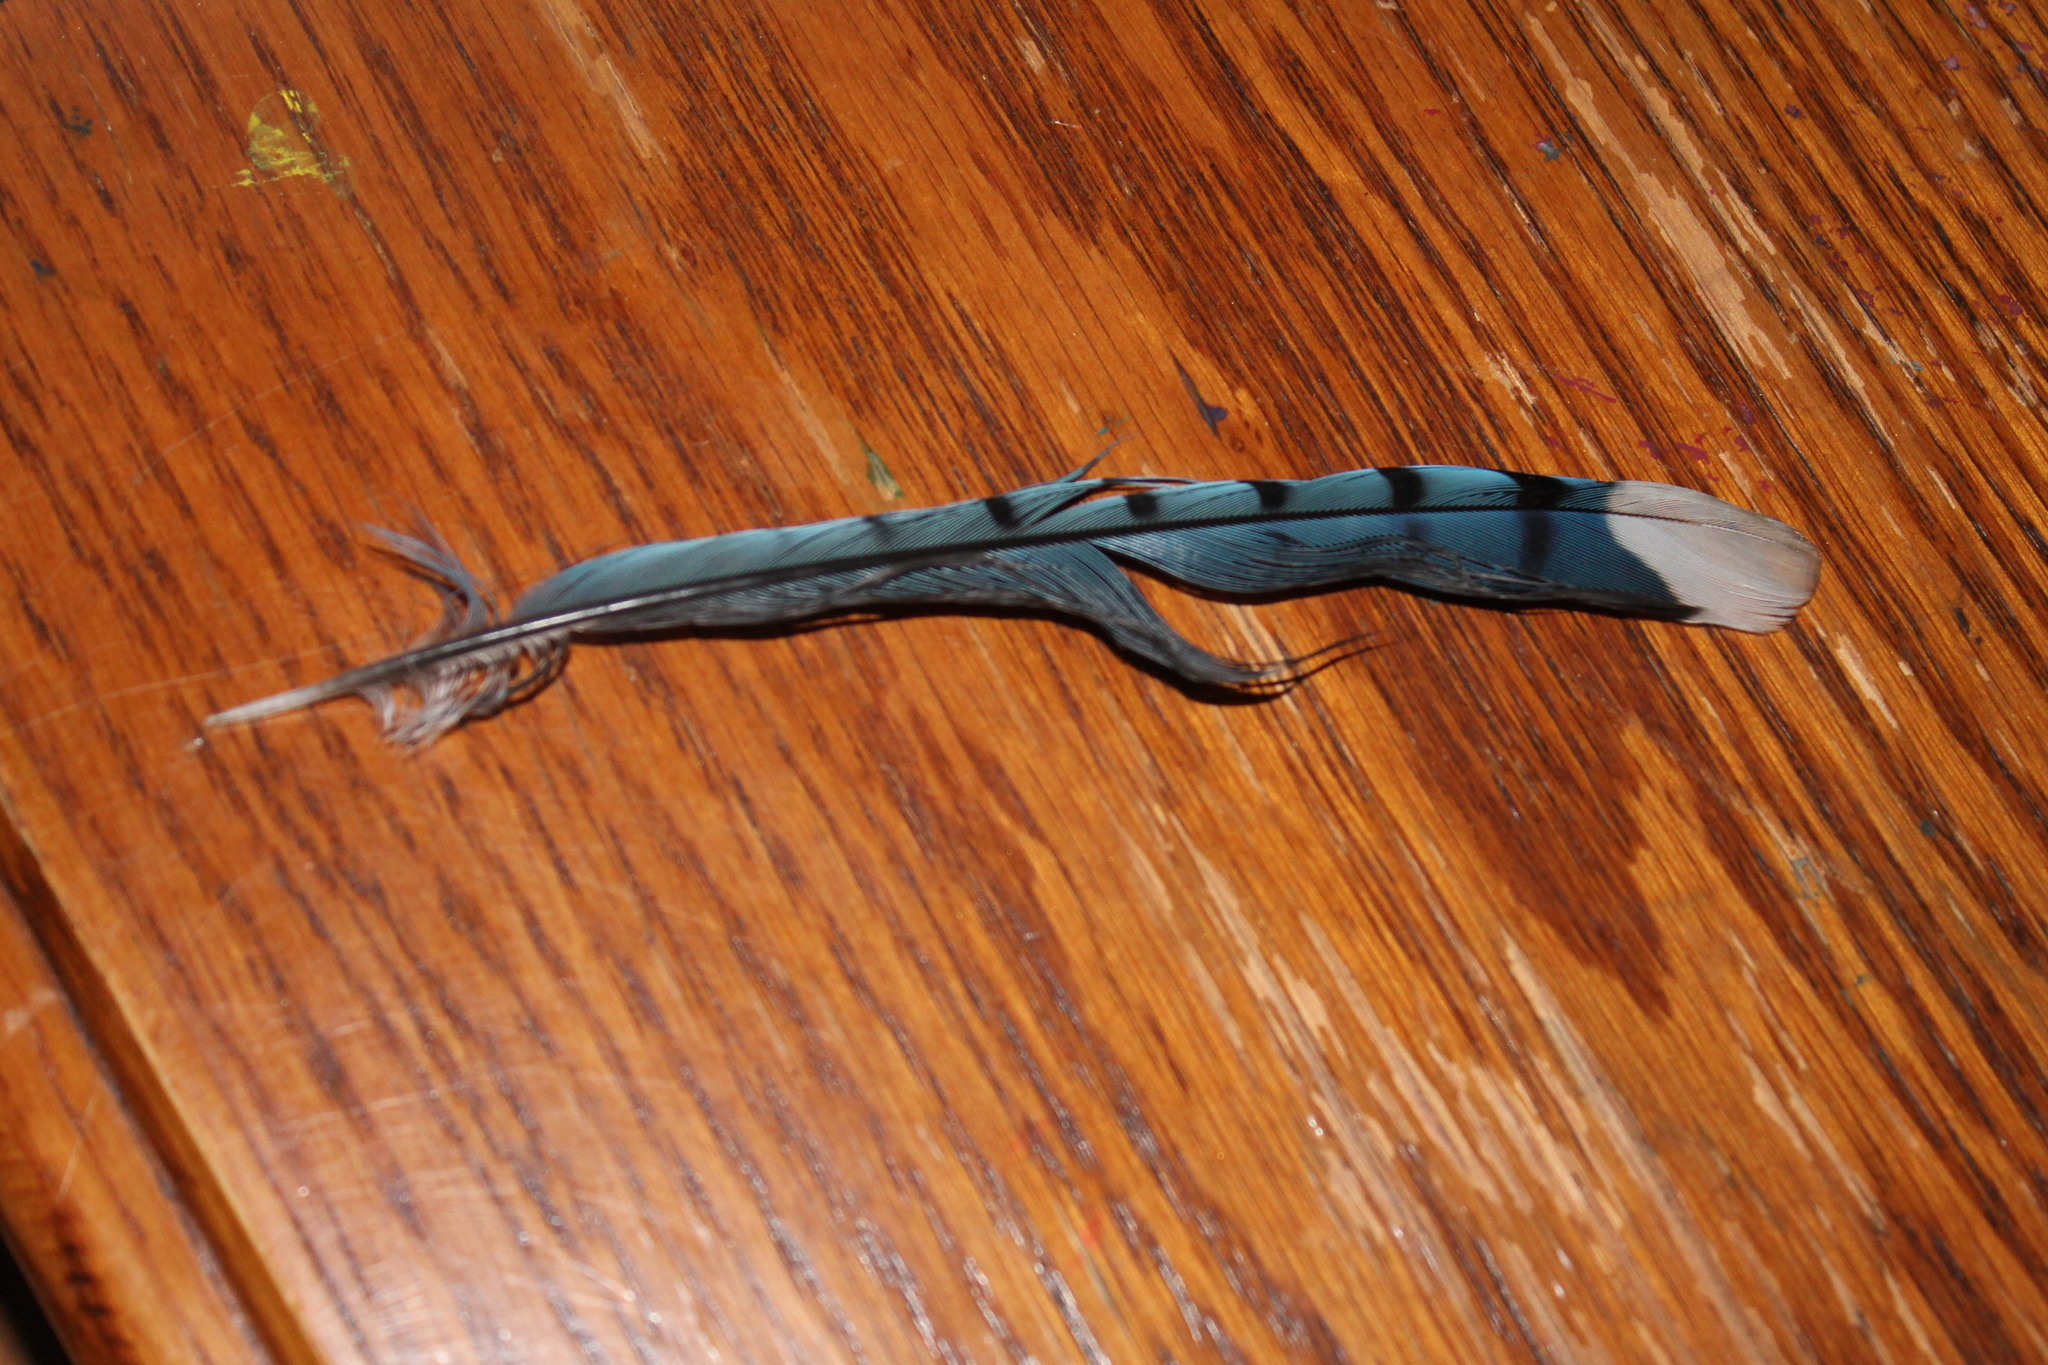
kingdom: Animalia
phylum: Chordata
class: Aves
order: Passeriformes
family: Corvidae
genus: Cyanocitta
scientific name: Cyanocitta cristata
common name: Blue jay
